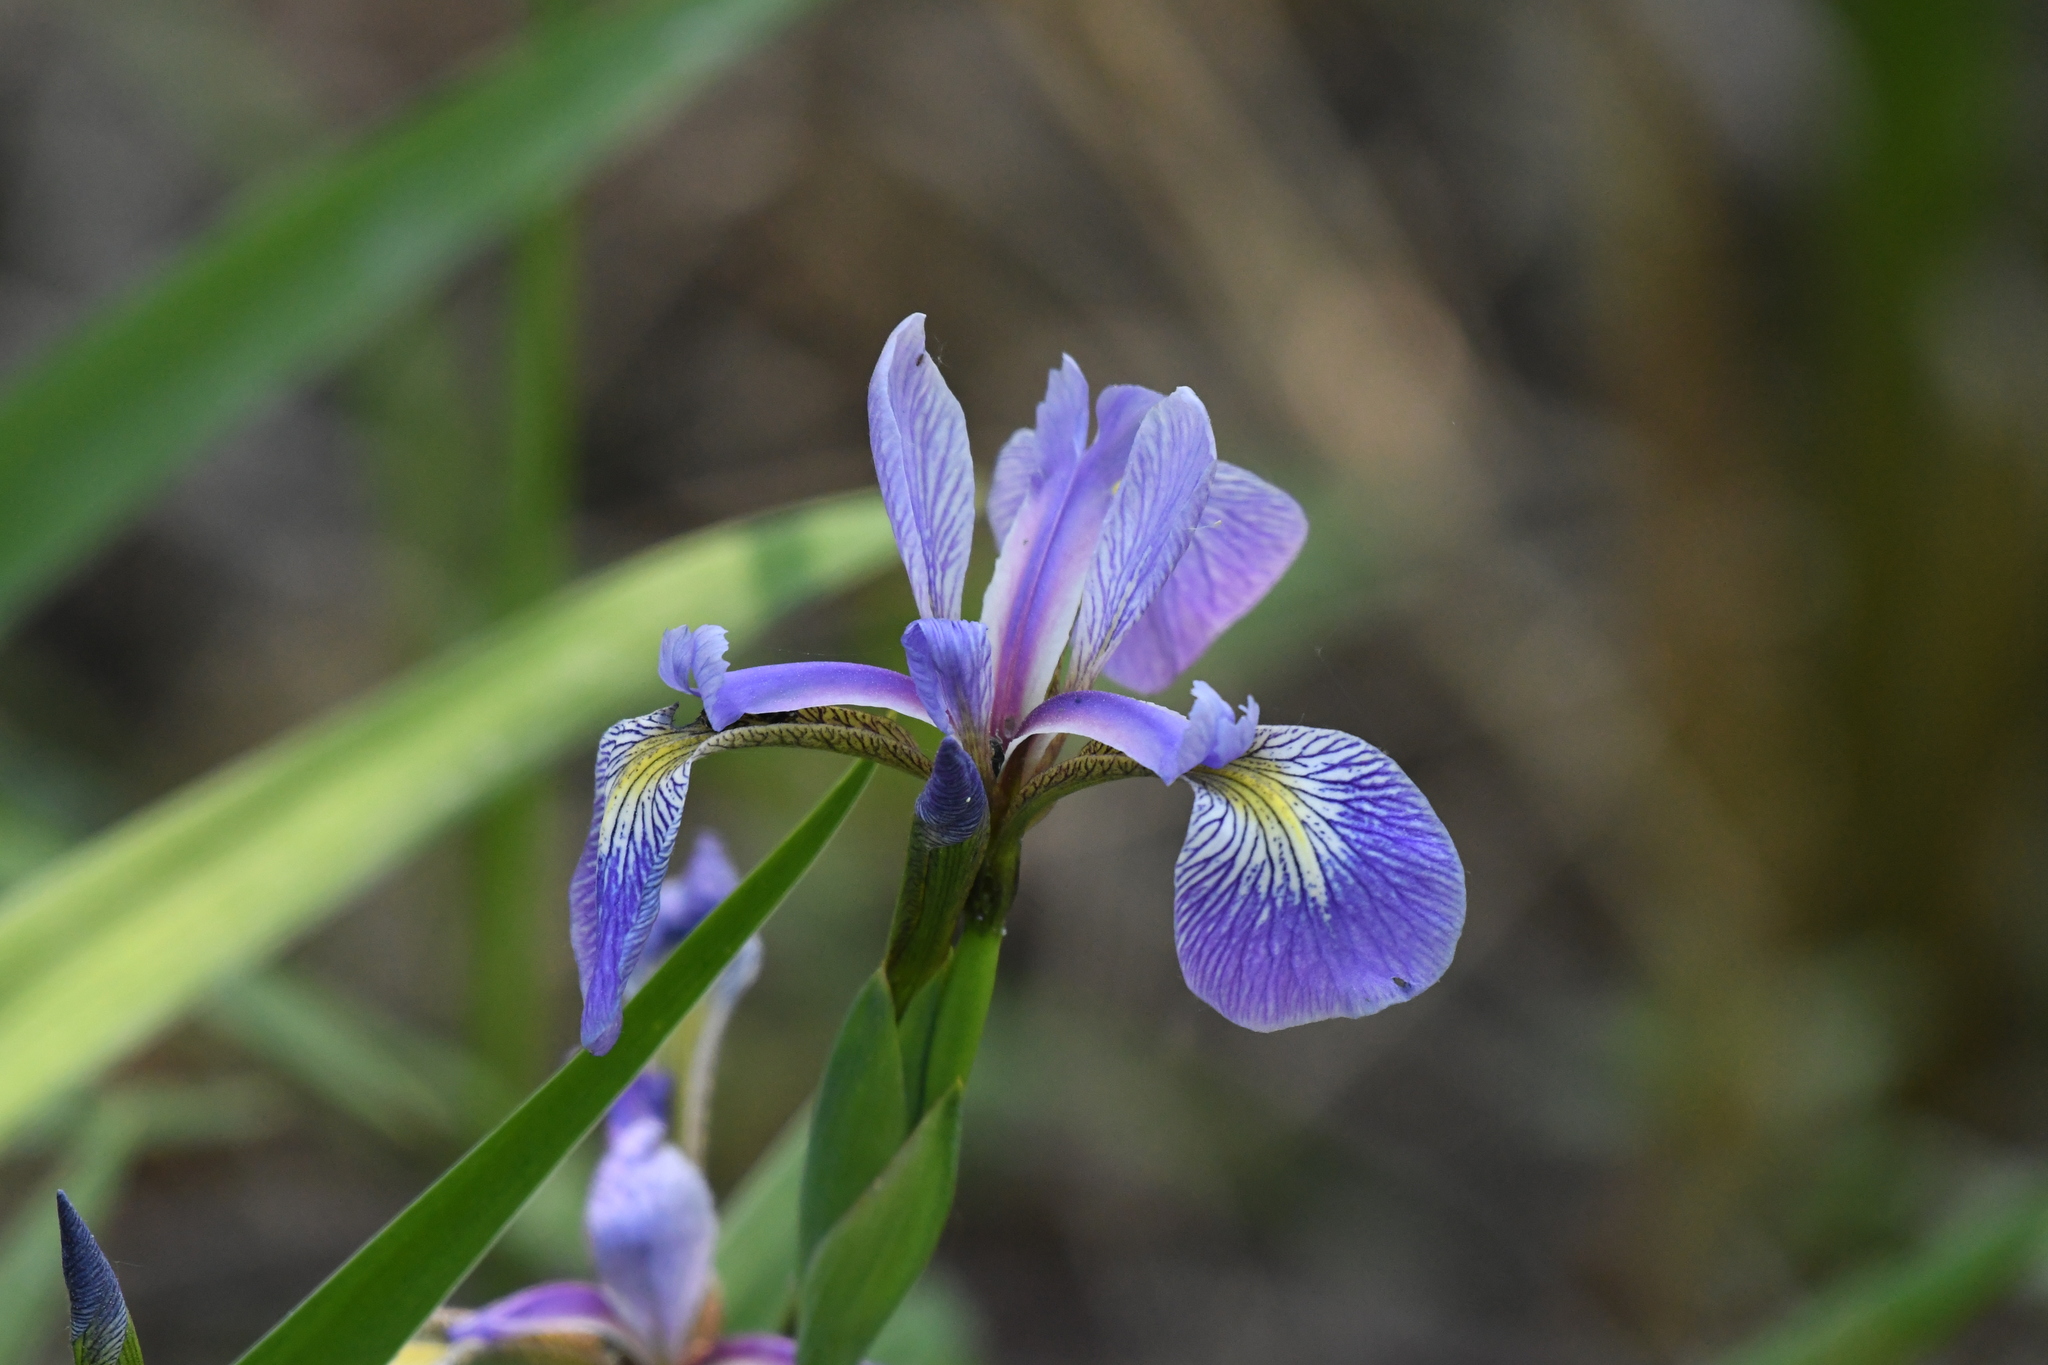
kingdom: Plantae
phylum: Tracheophyta
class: Liliopsida
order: Asparagales
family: Iridaceae
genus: Iris
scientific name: Iris versicolor
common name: Purple iris
